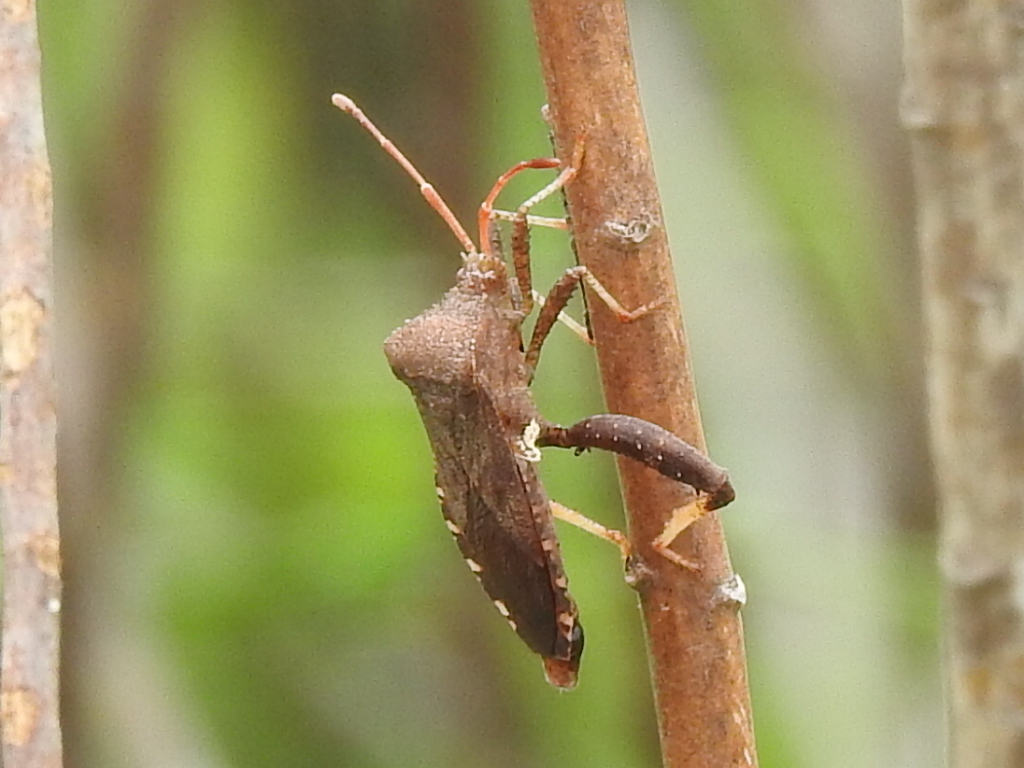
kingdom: Animalia
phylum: Arthropoda
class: Insecta
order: Hemiptera
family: Coreidae
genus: Euthochtha
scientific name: Euthochtha galeator
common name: Helmeted squash bug
